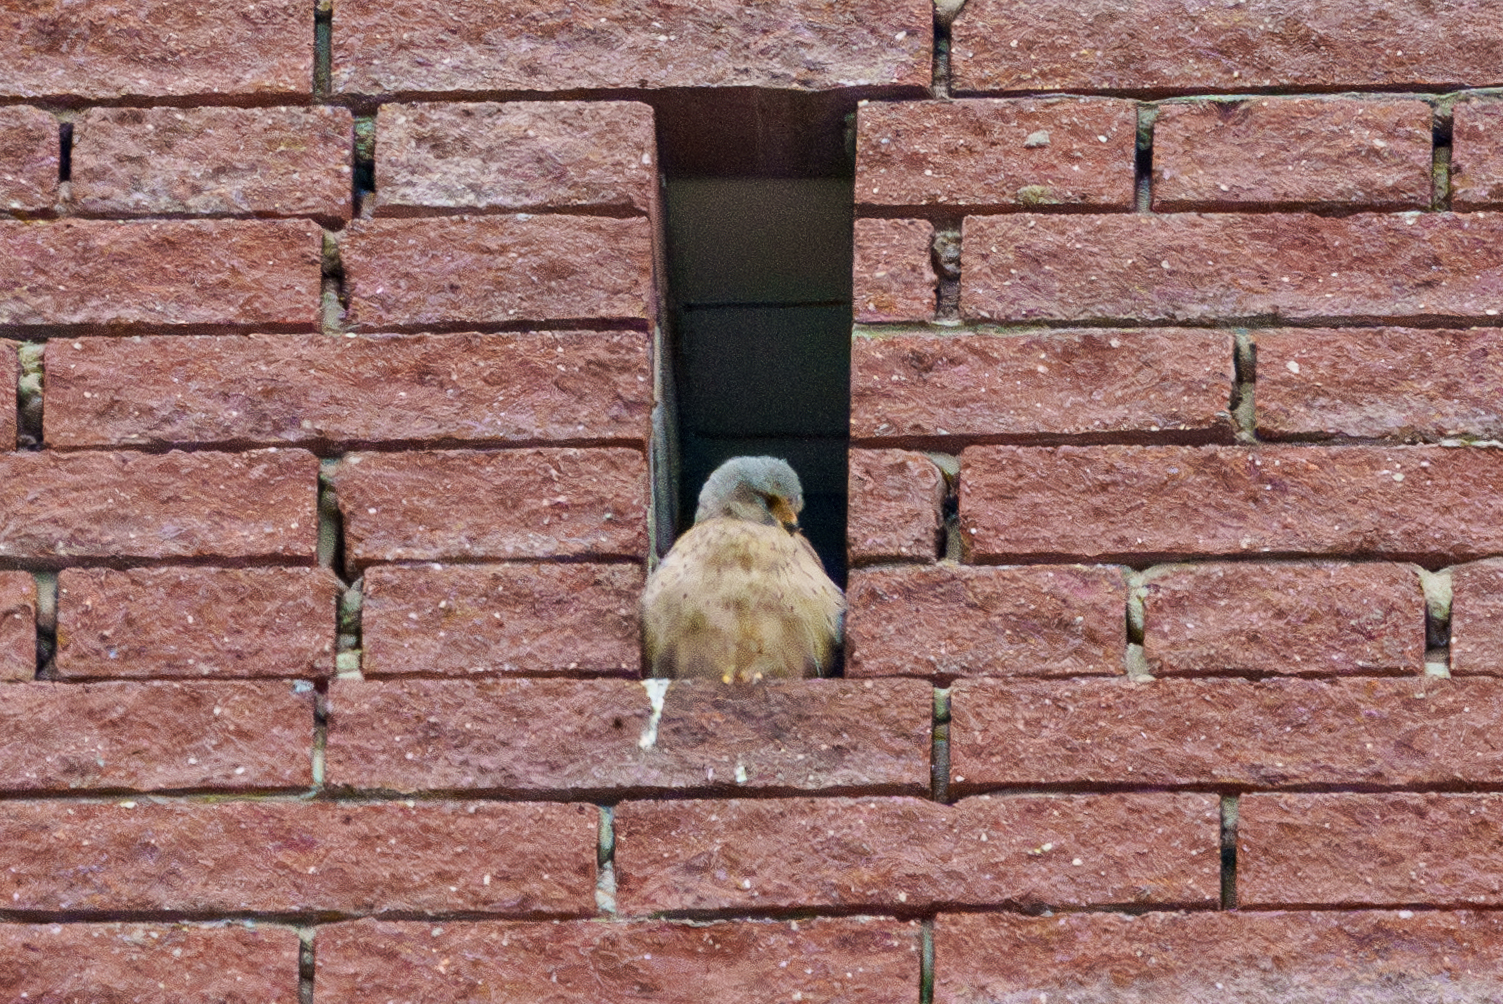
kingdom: Animalia
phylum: Chordata
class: Aves
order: Falconiformes
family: Falconidae
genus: Falco
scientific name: Falco tinnunculus
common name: Common kestrel
